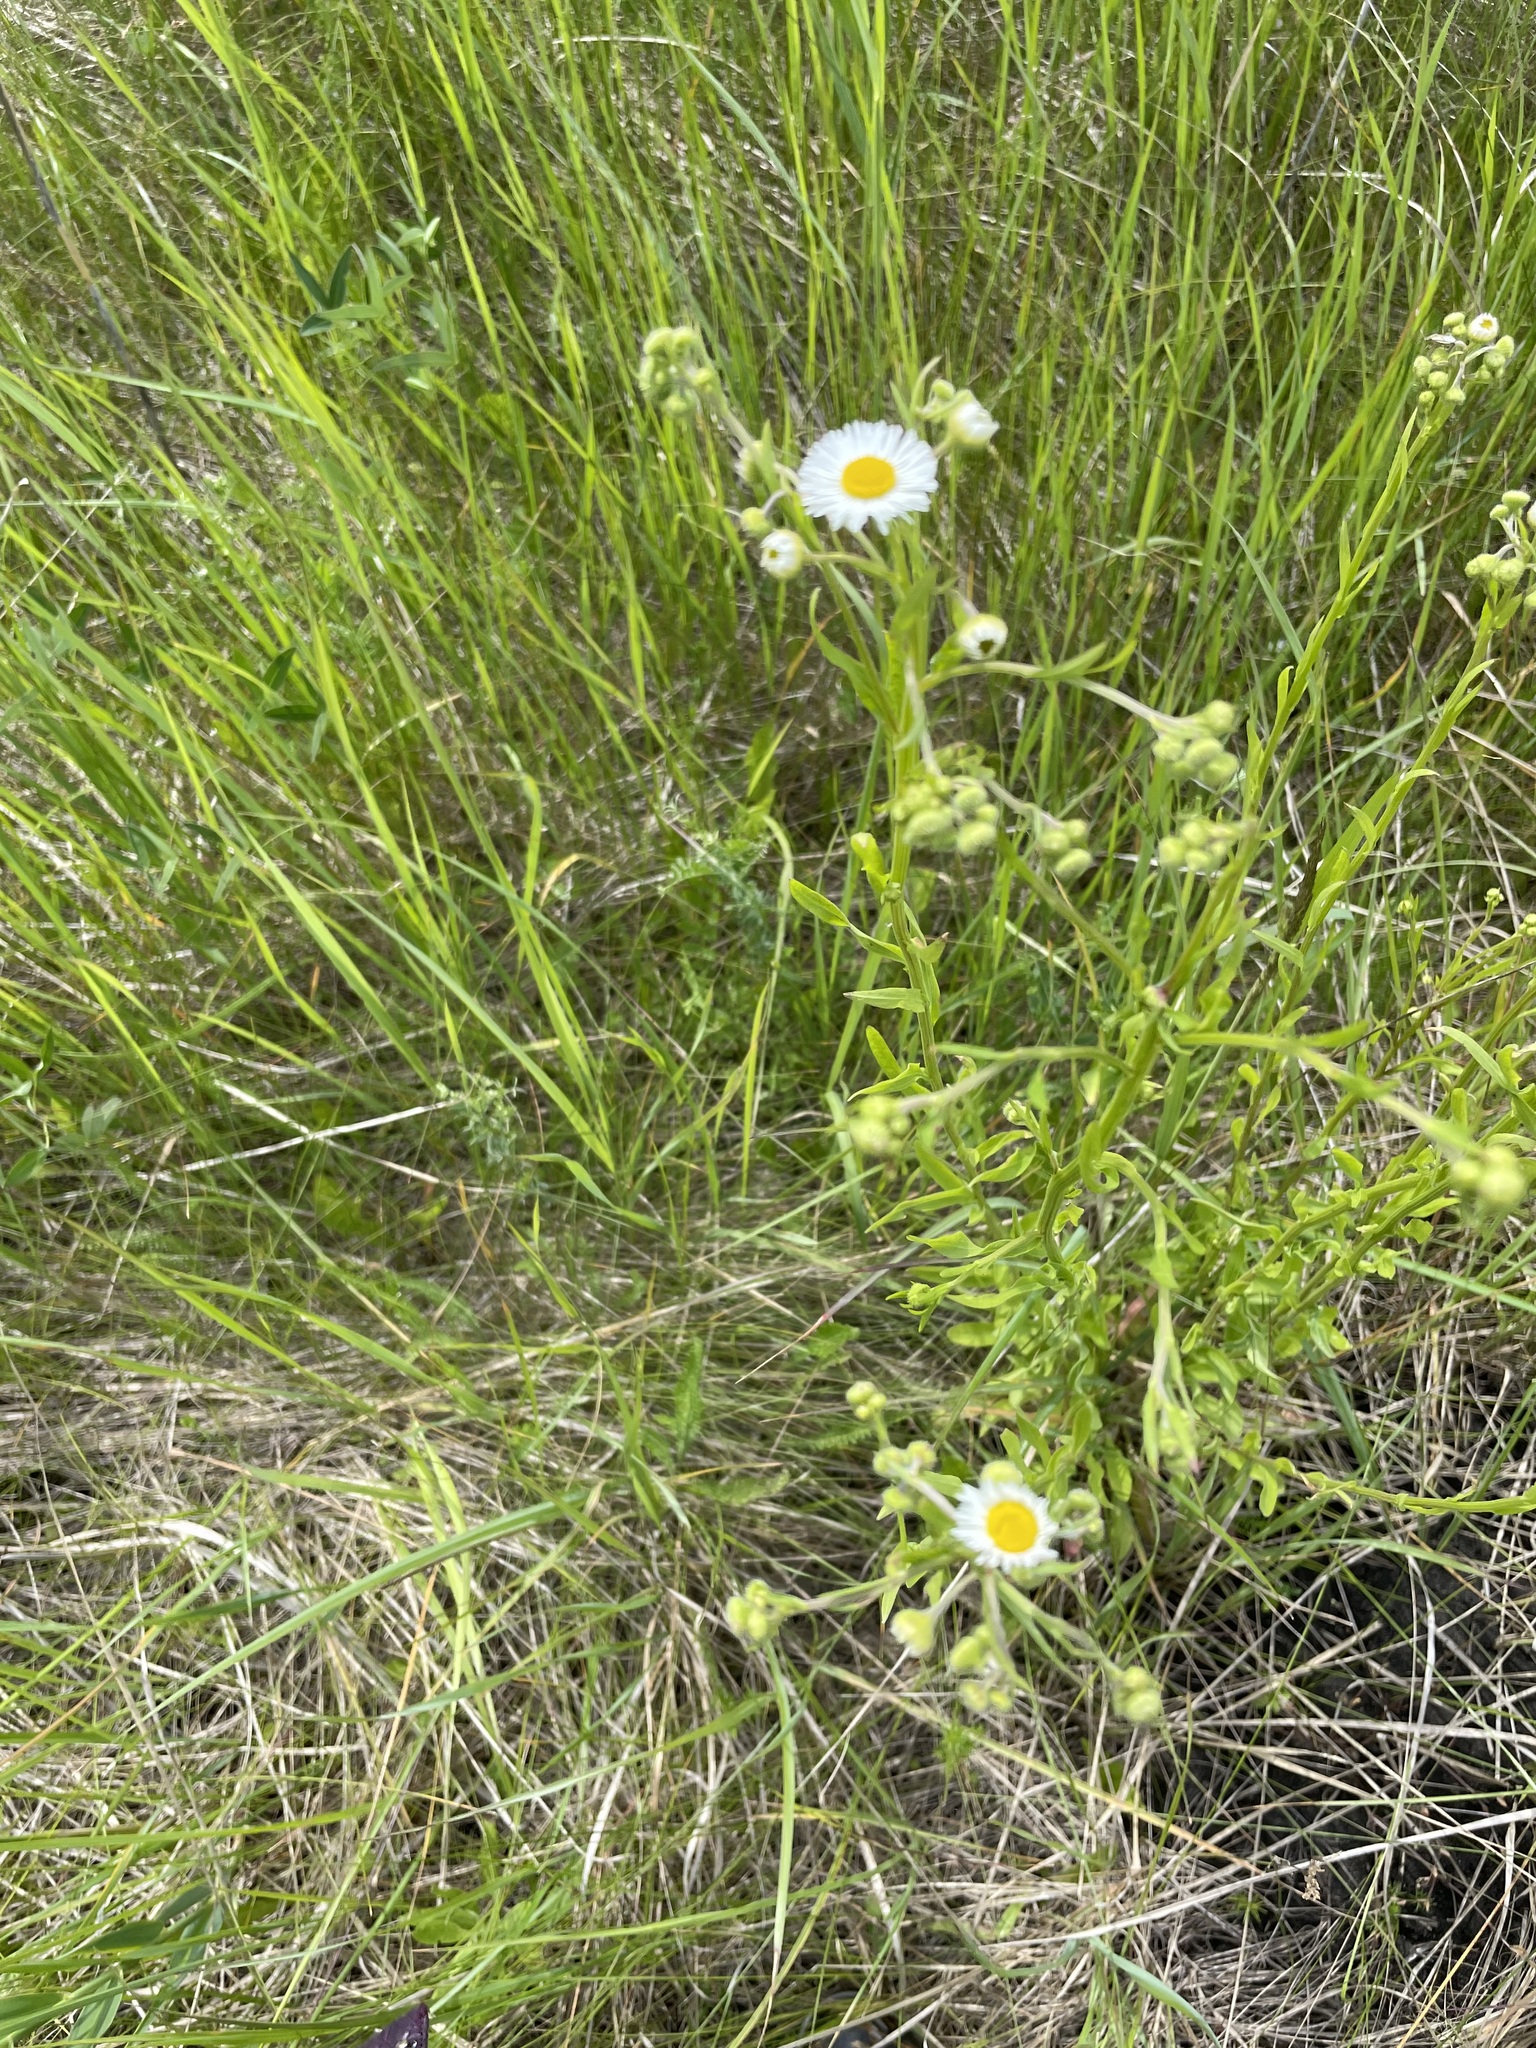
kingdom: Plantae
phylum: Tracheophyta
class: Magnoliopsida
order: Asterales
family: Asteraceae
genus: Erigeron
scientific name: Erigeron strigosus
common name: Common eastern fleabane
